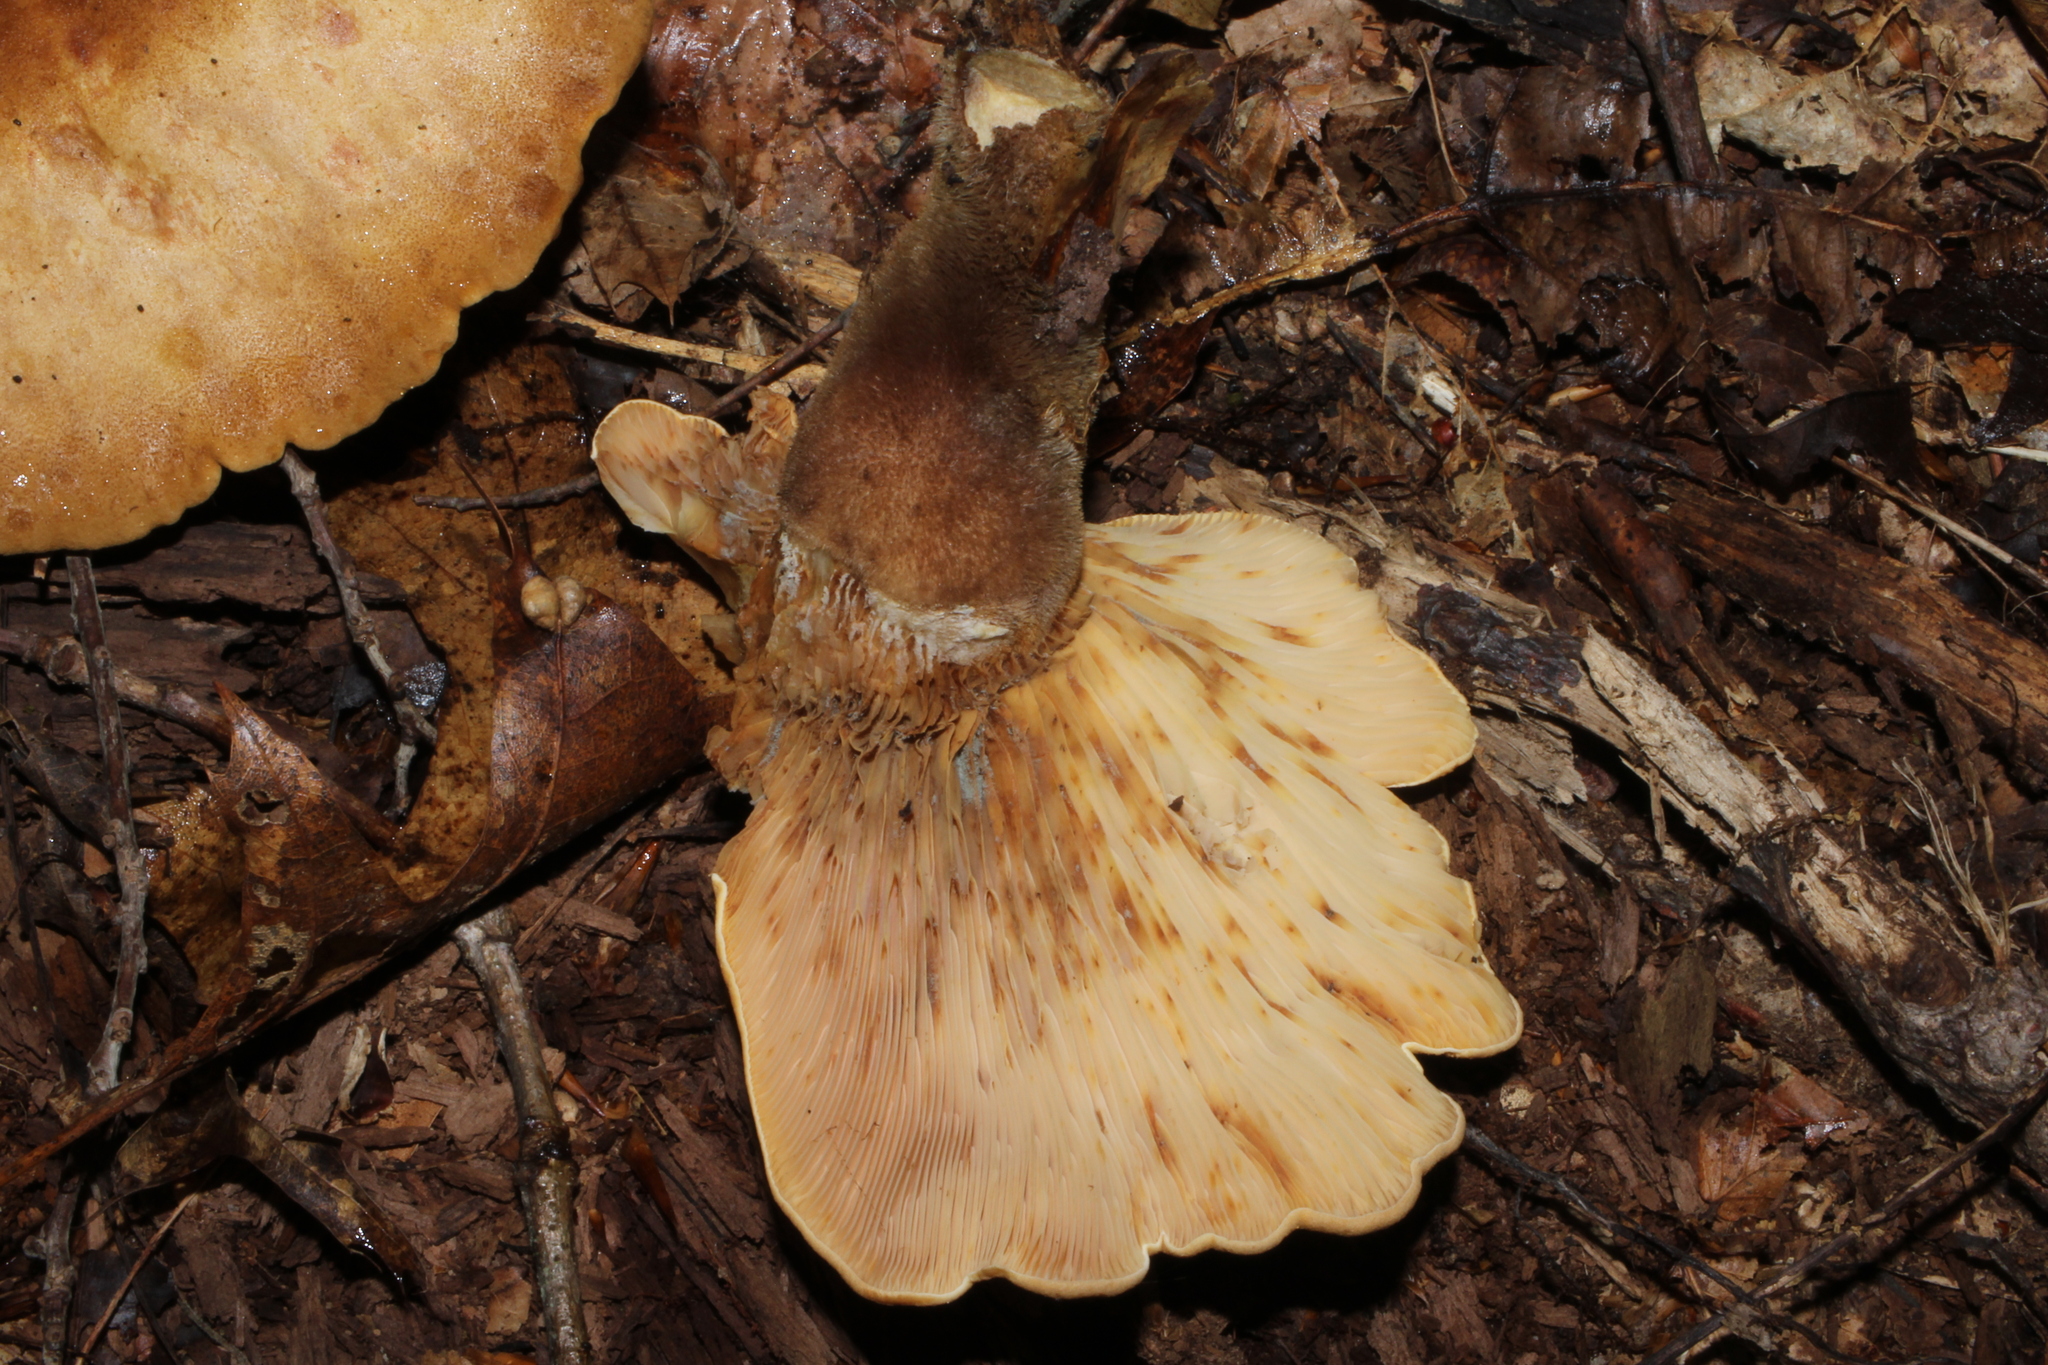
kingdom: Fungi
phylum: Basidiomycota
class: Agaricomycetes
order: Boletales
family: Tapinellaceae
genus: Tapinella
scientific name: Tapinella atrotomentosa
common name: Velvet rollrim
